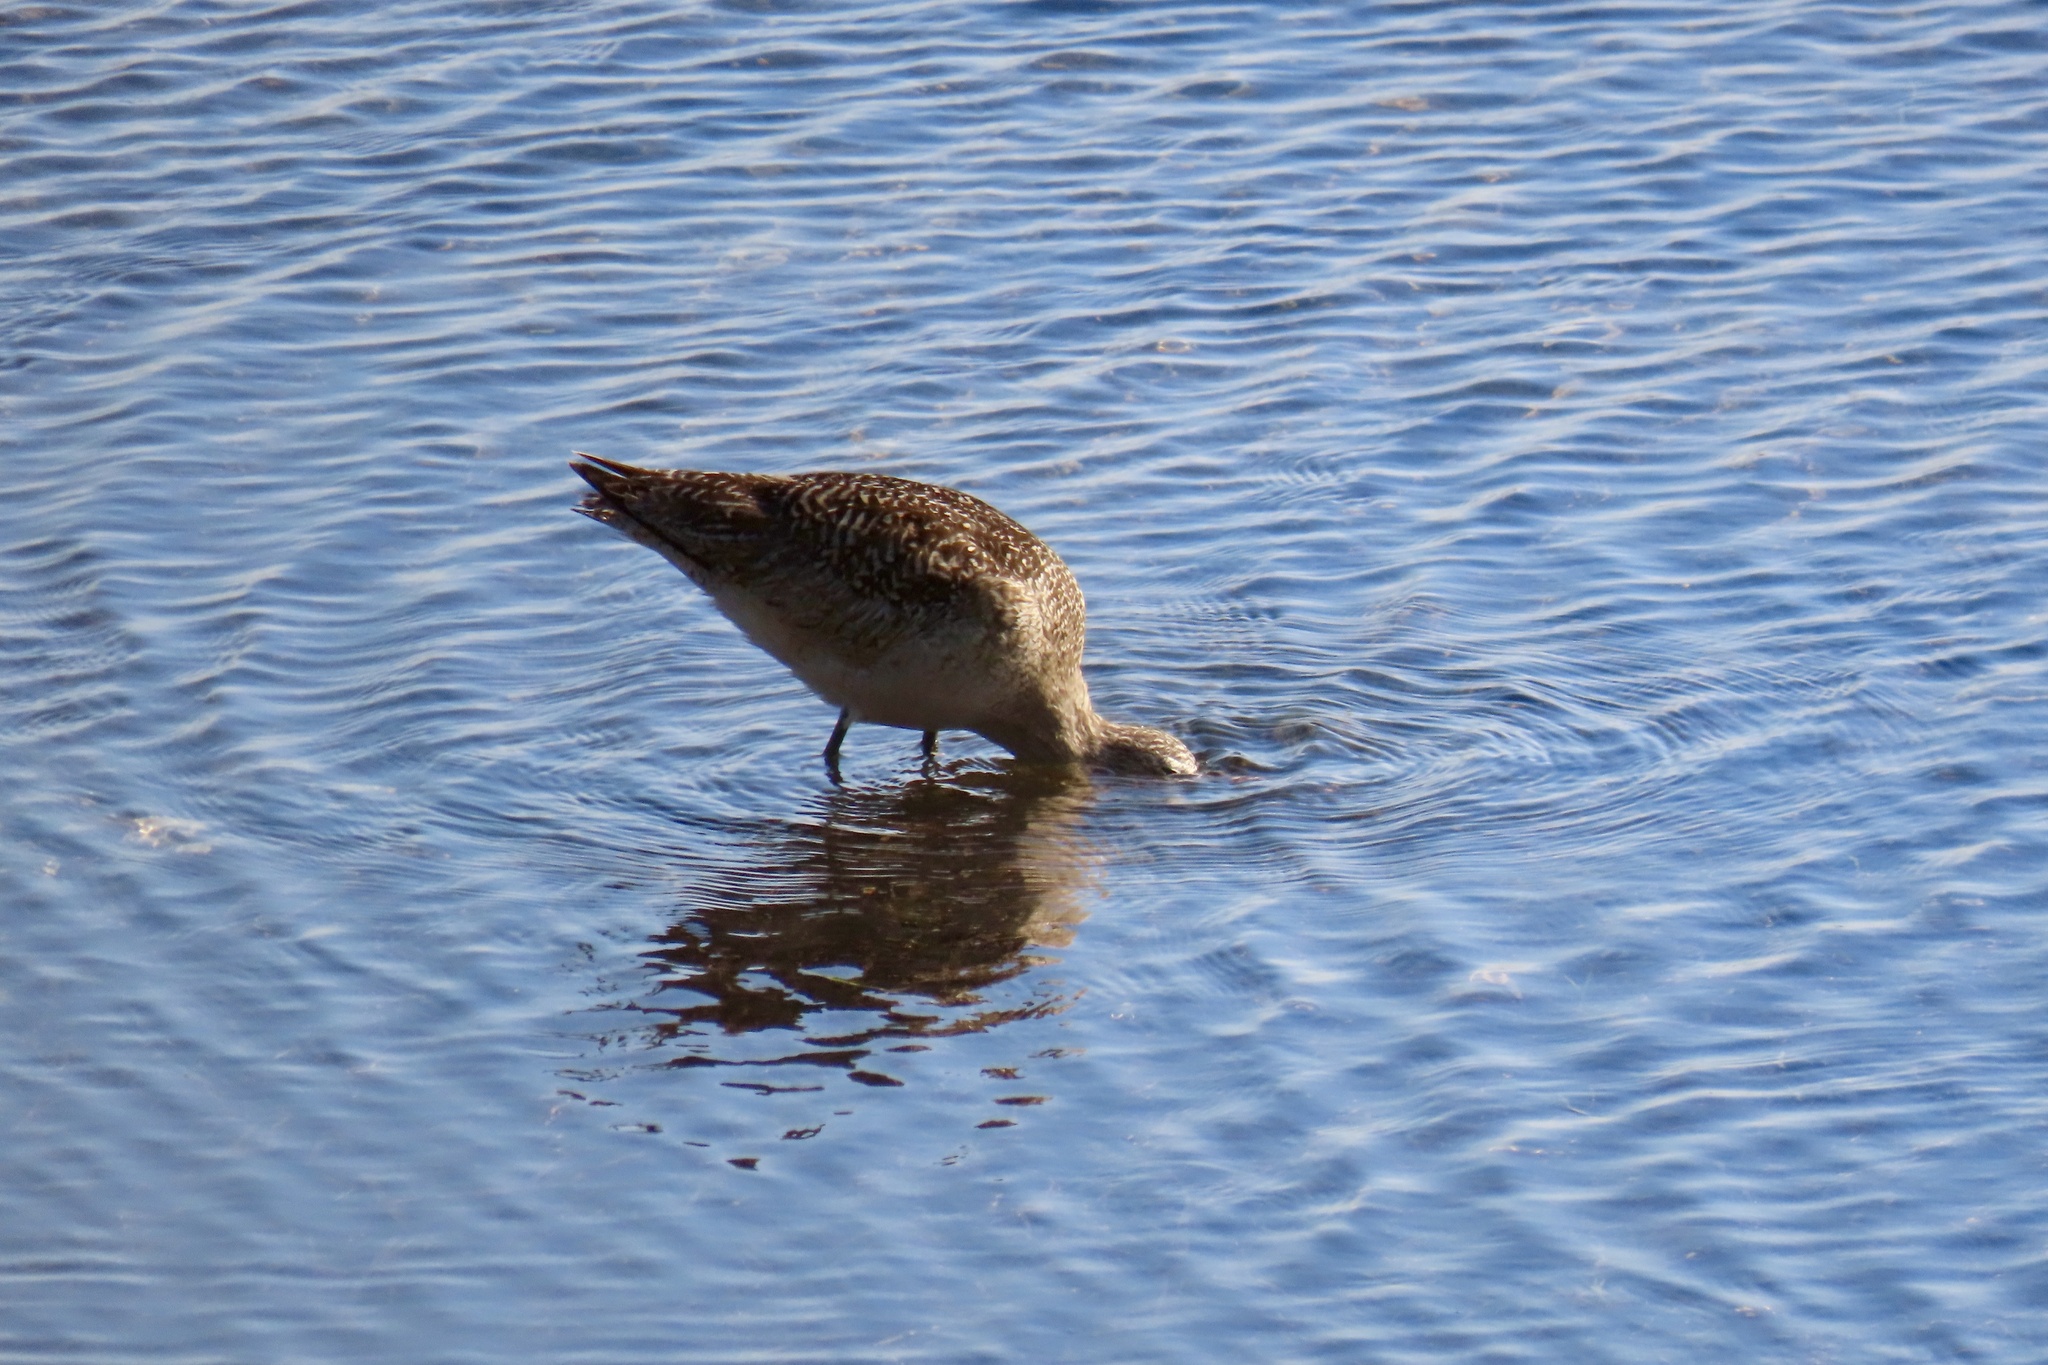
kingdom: Animalia
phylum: Chordata
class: Aves
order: Charadriiformes
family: Scolopacidae
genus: Limosa
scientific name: Limosa fedoa
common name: Marbled godwit
